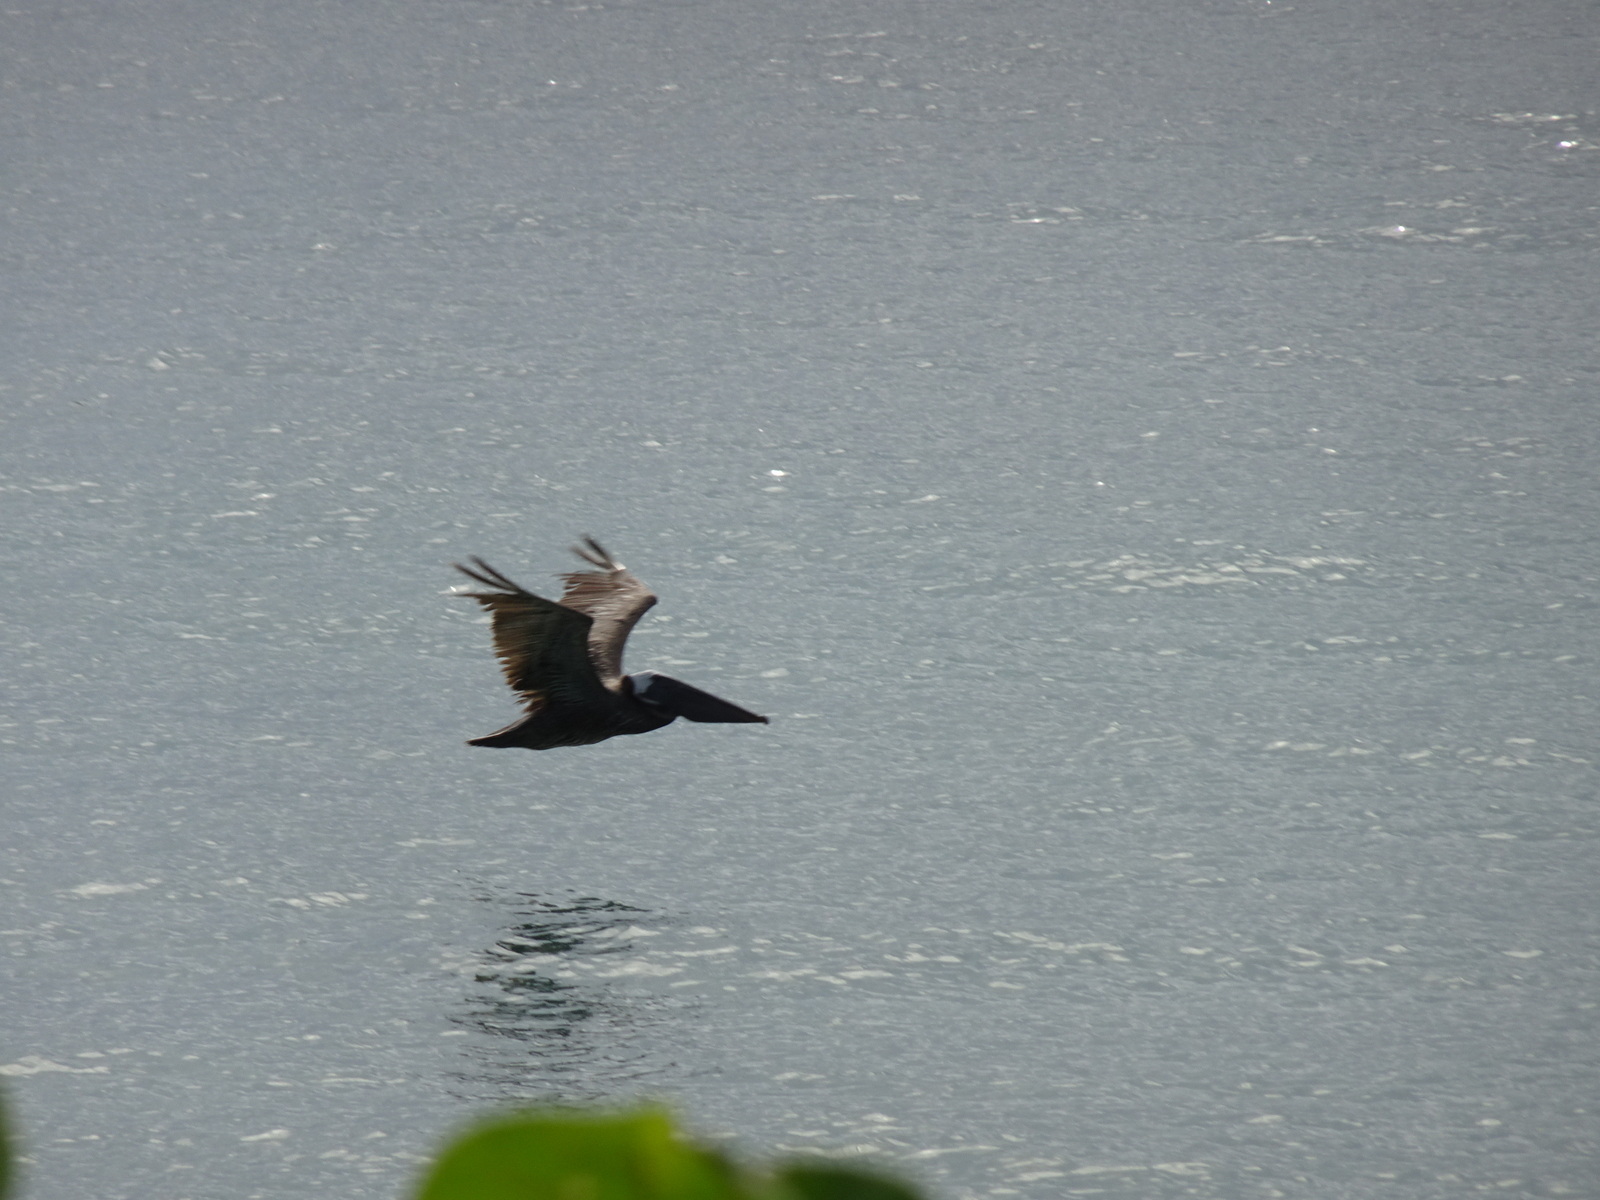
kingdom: Animalia
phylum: Chordata
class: Aves
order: Pelecaniformes
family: Pelecanidae
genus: Pelecanus
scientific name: Pelecanus occidentalis
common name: Brown pelican
